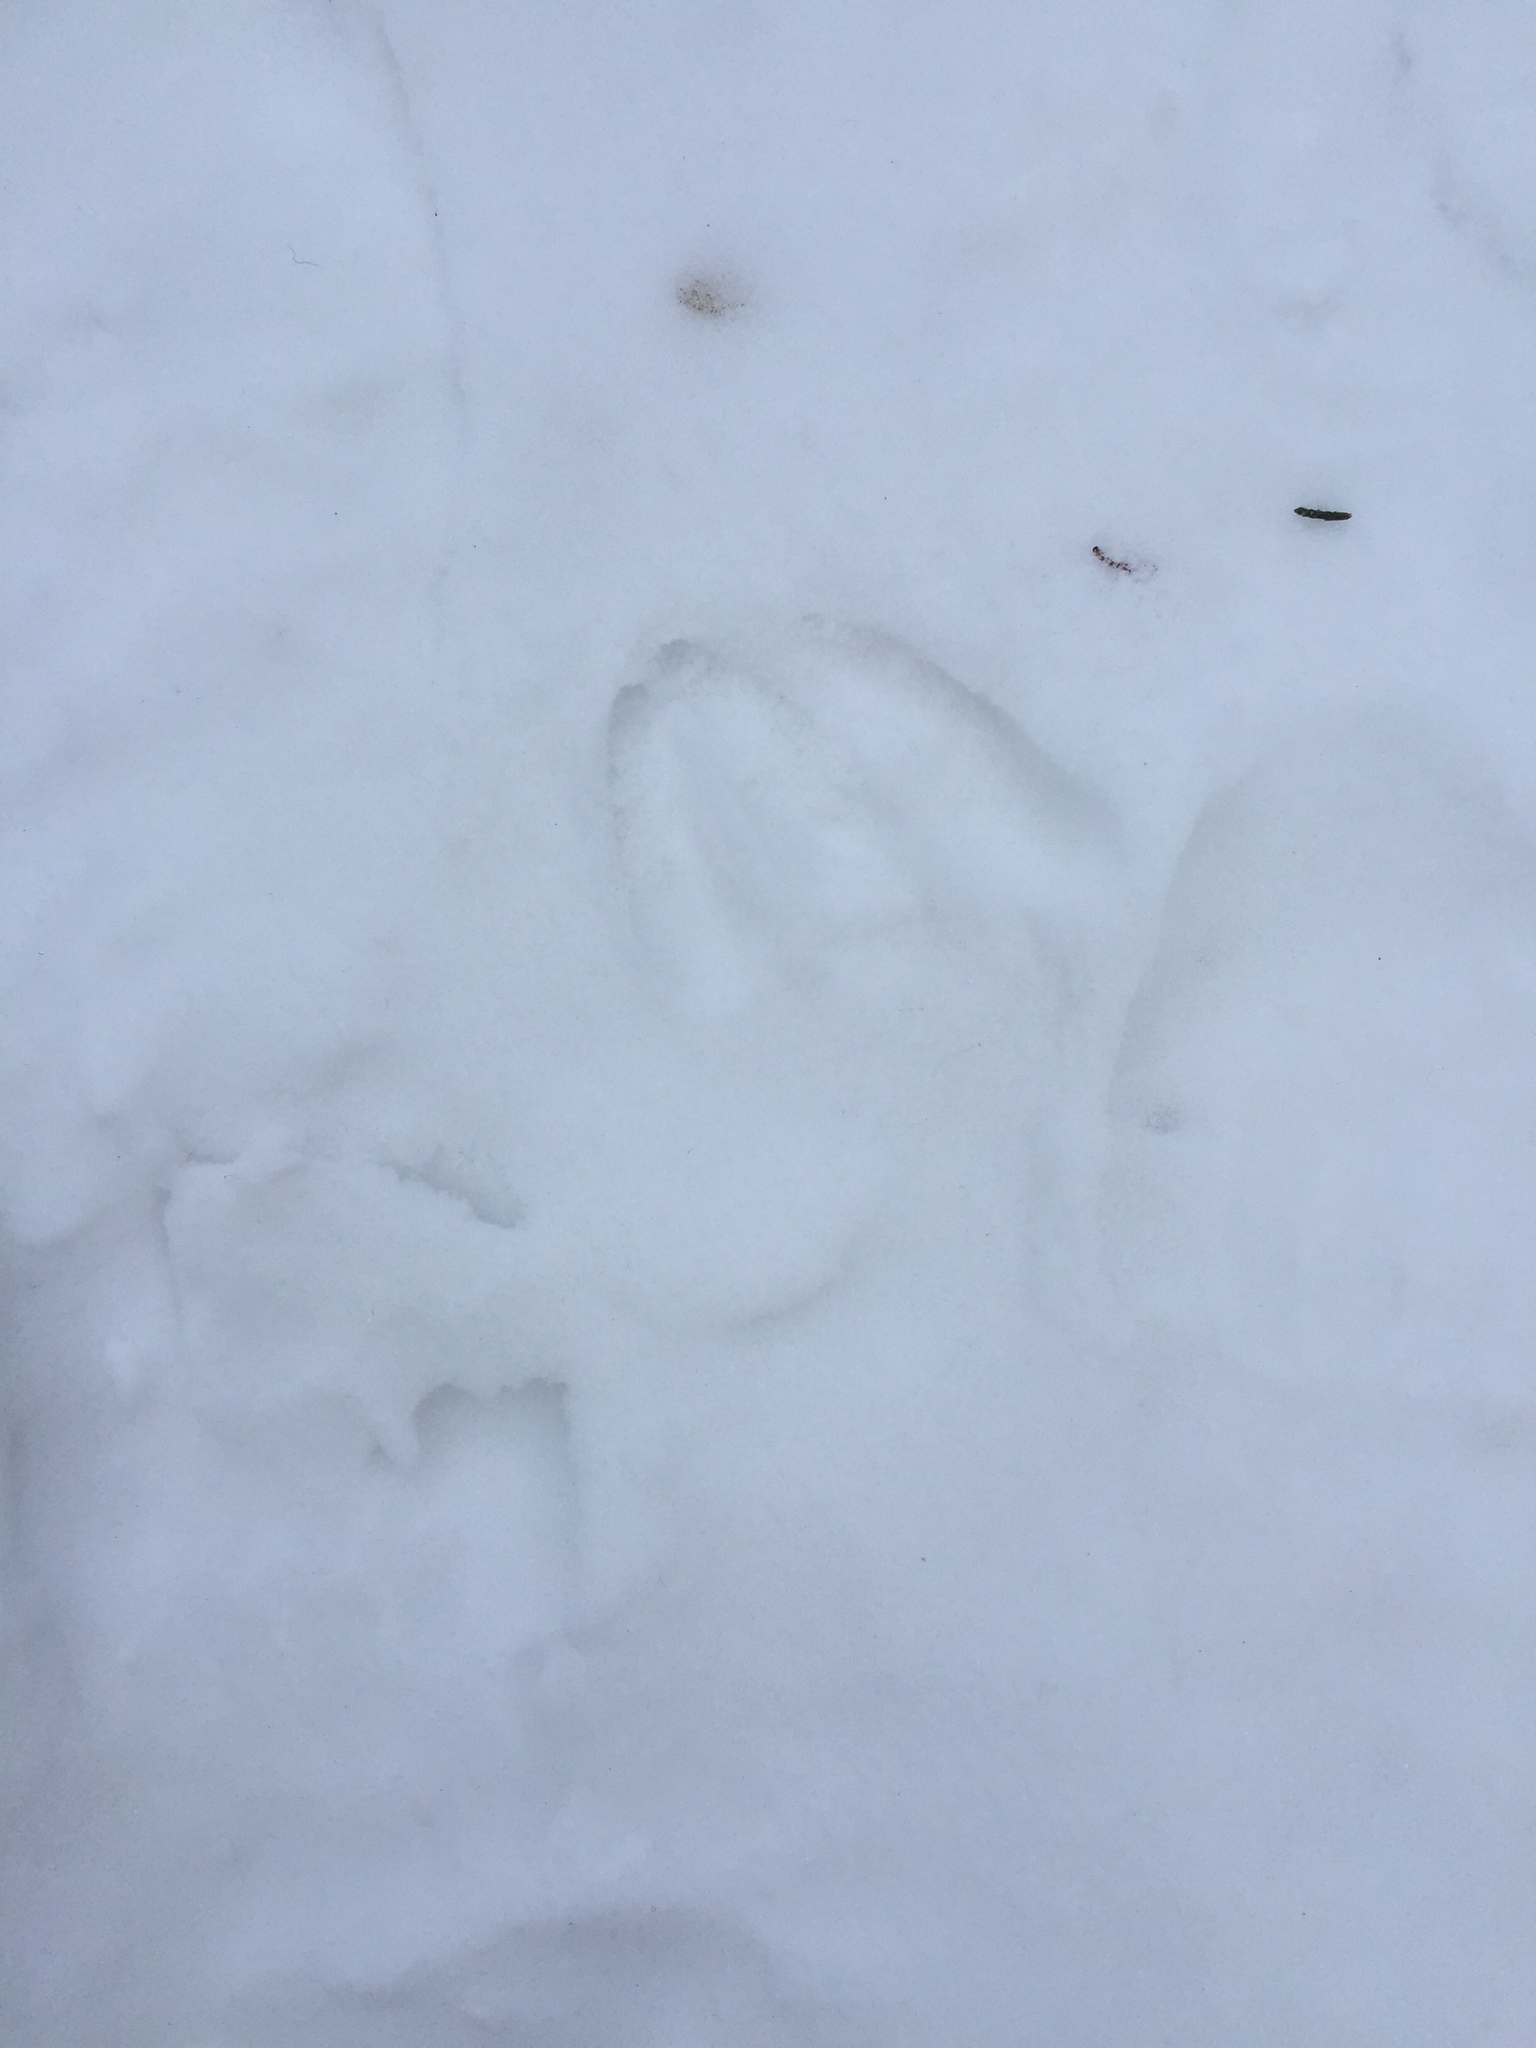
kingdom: Animalia
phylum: Chordata
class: Mammalia
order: Artiodactyla
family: Cervidae
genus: Odocoileus
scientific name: Odocoileus virginianus
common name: White-tailed deer
